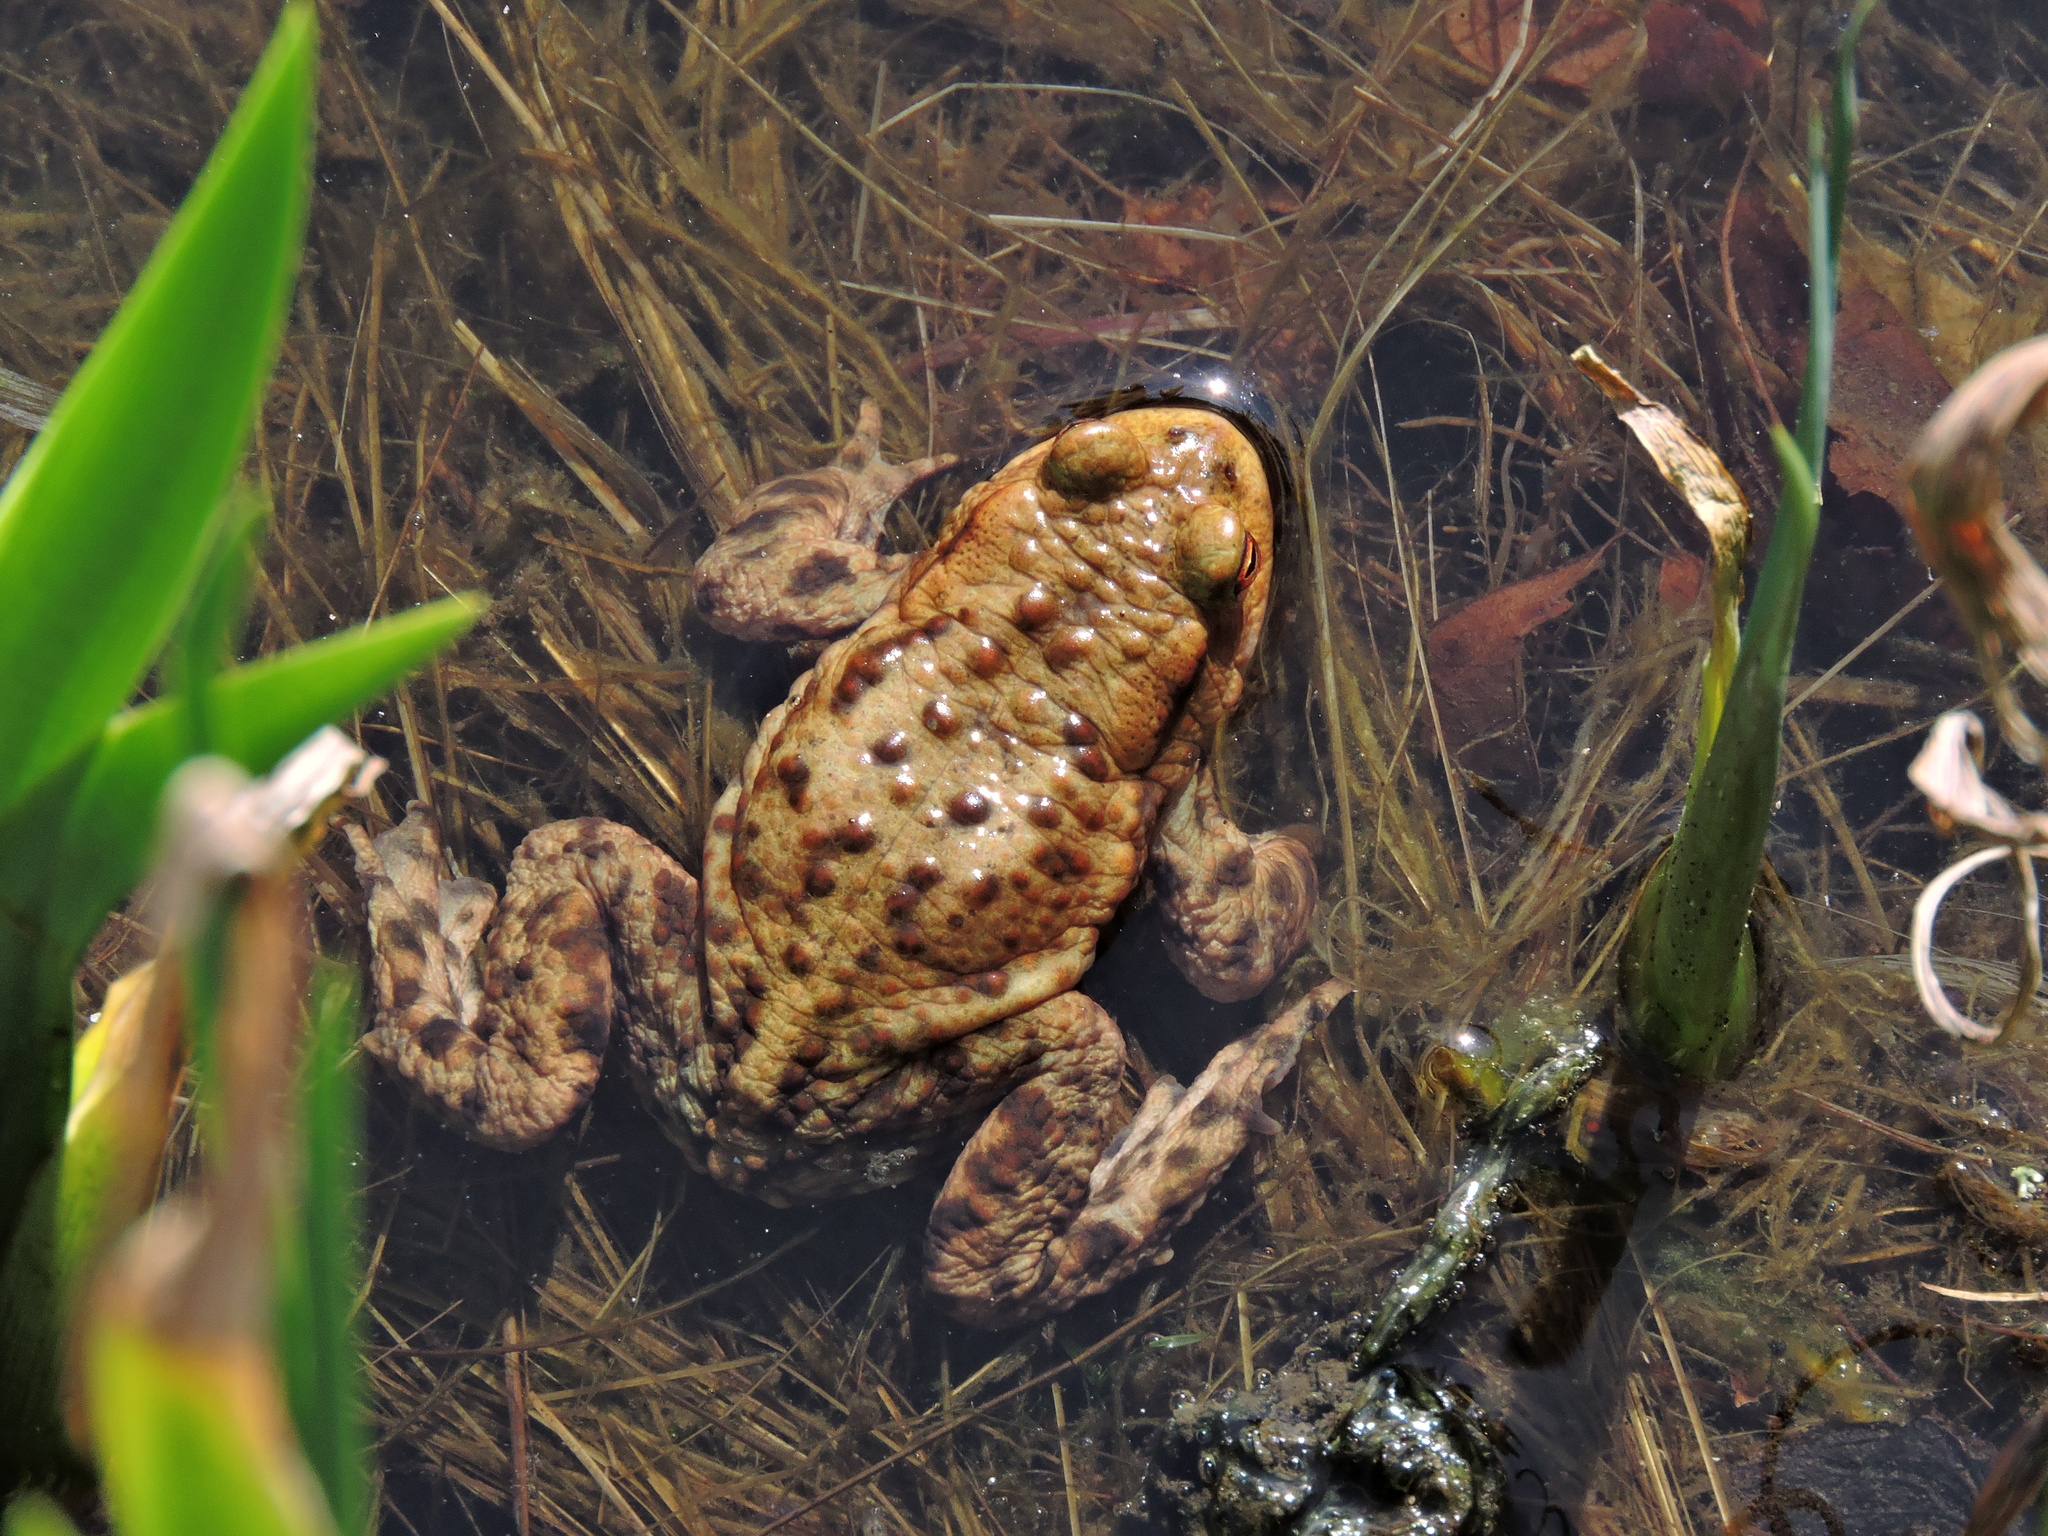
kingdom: Animalia
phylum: Chordata
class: Amphibia
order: Anura
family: Bufonidae
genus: Bufo
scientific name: Bufo bufo
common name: Common toad
